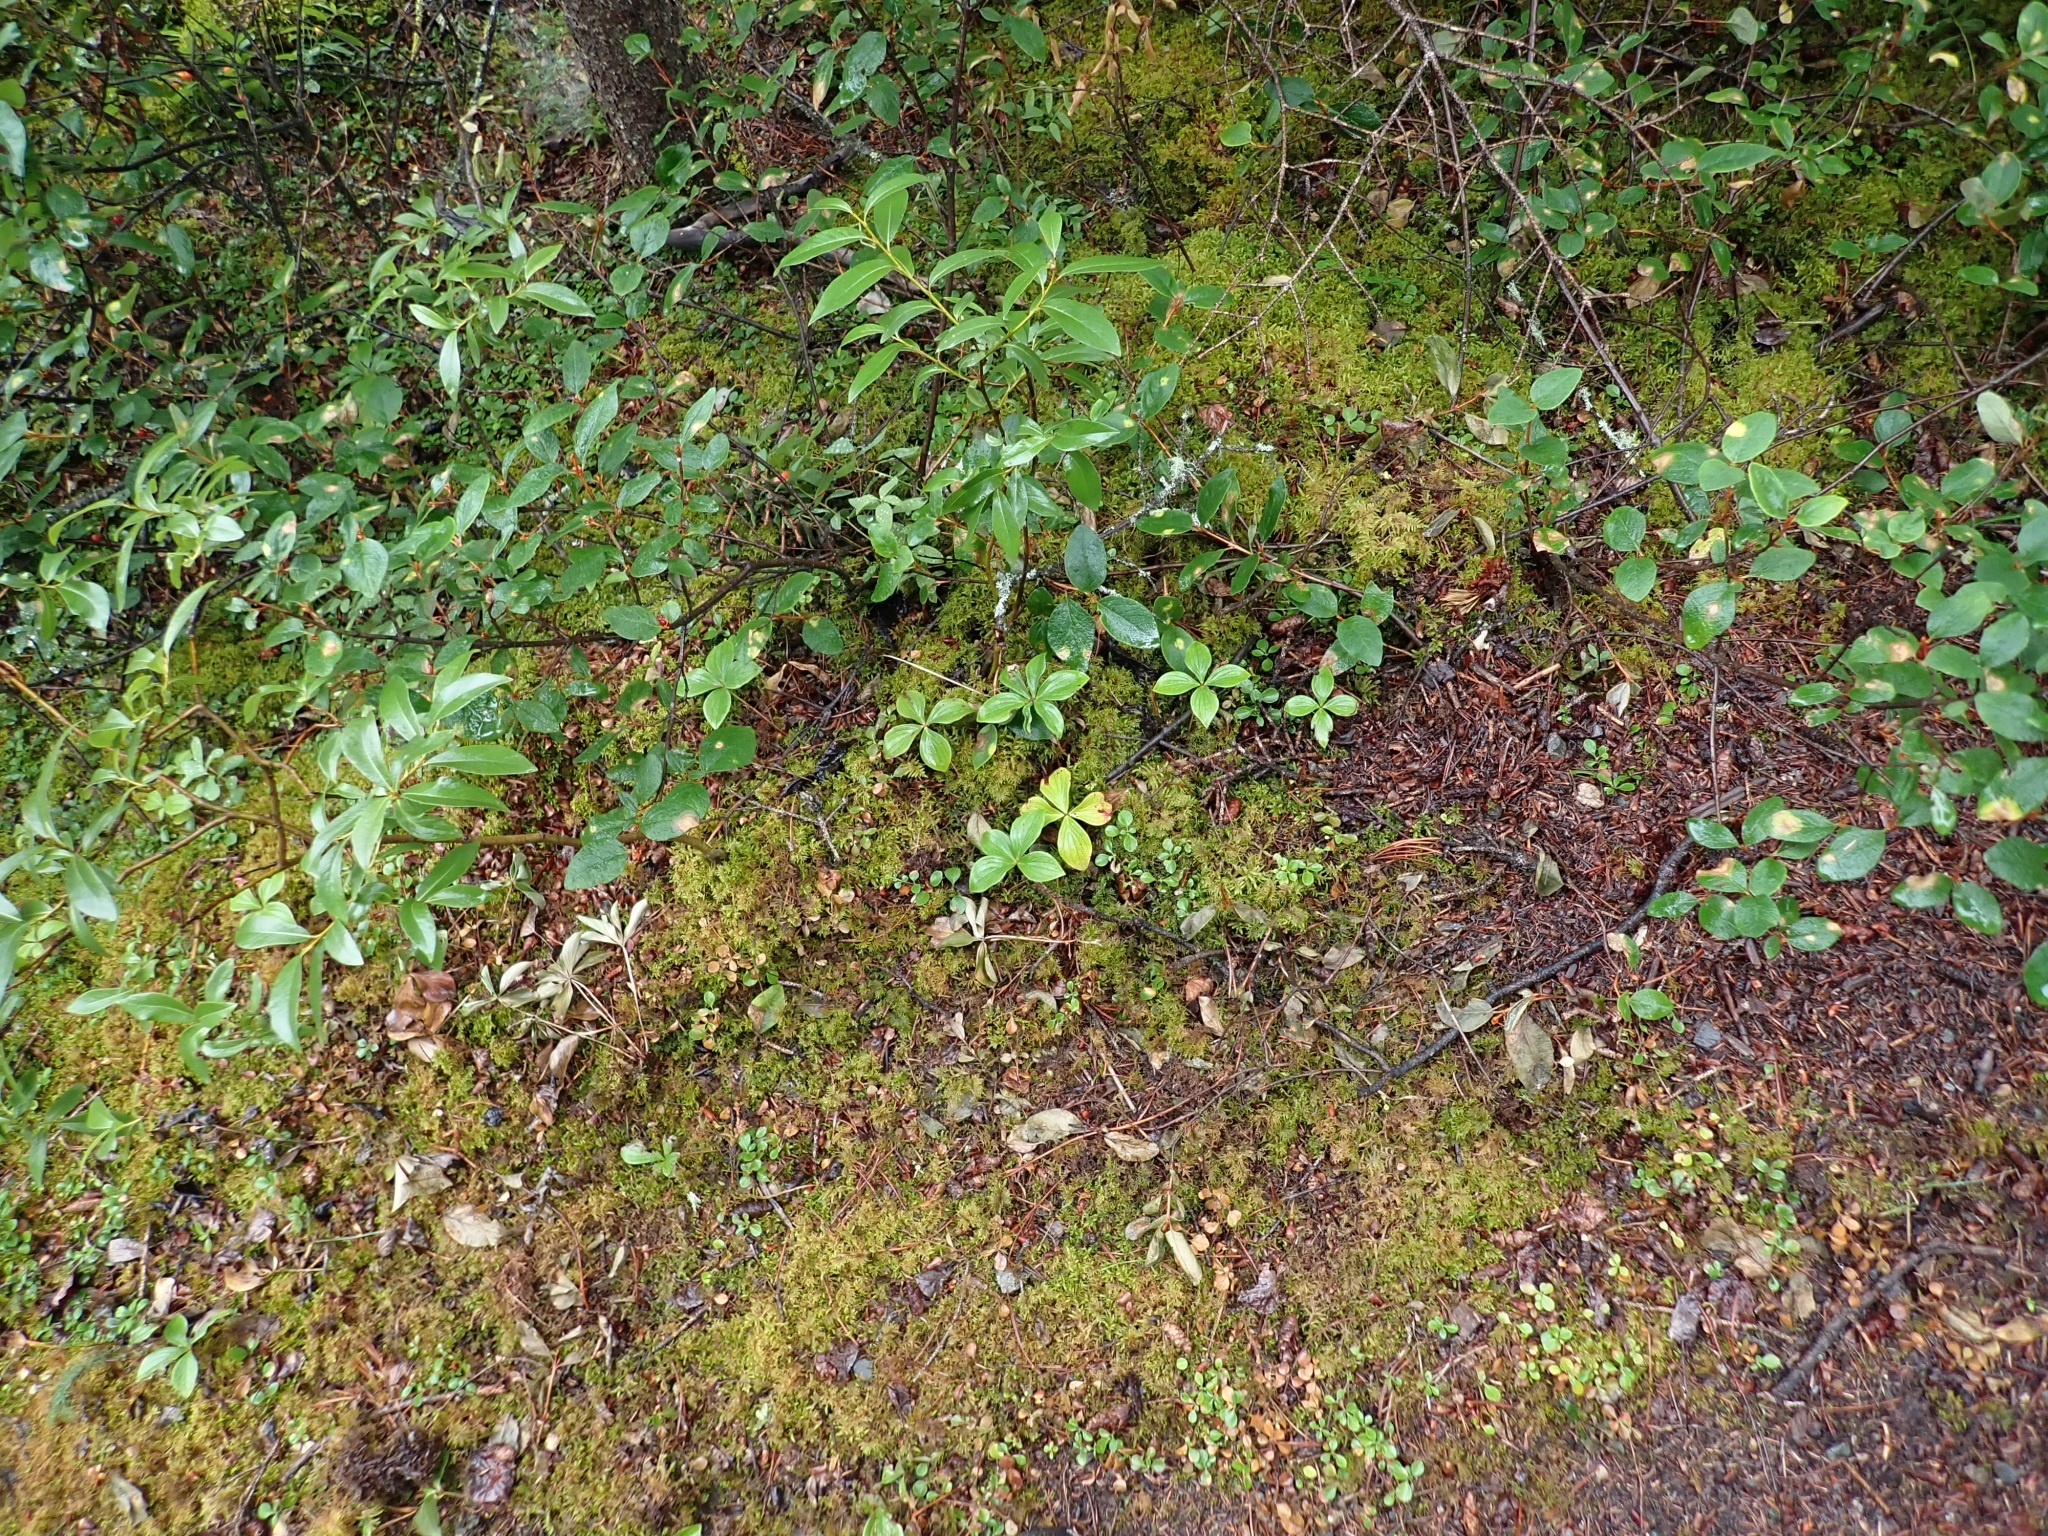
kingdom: Plantae
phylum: Tracheophyta
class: Magnoliopsida
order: Cornales
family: Cornaceae
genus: Cornus
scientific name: Cornus canadensis
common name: Creeping dogwood
